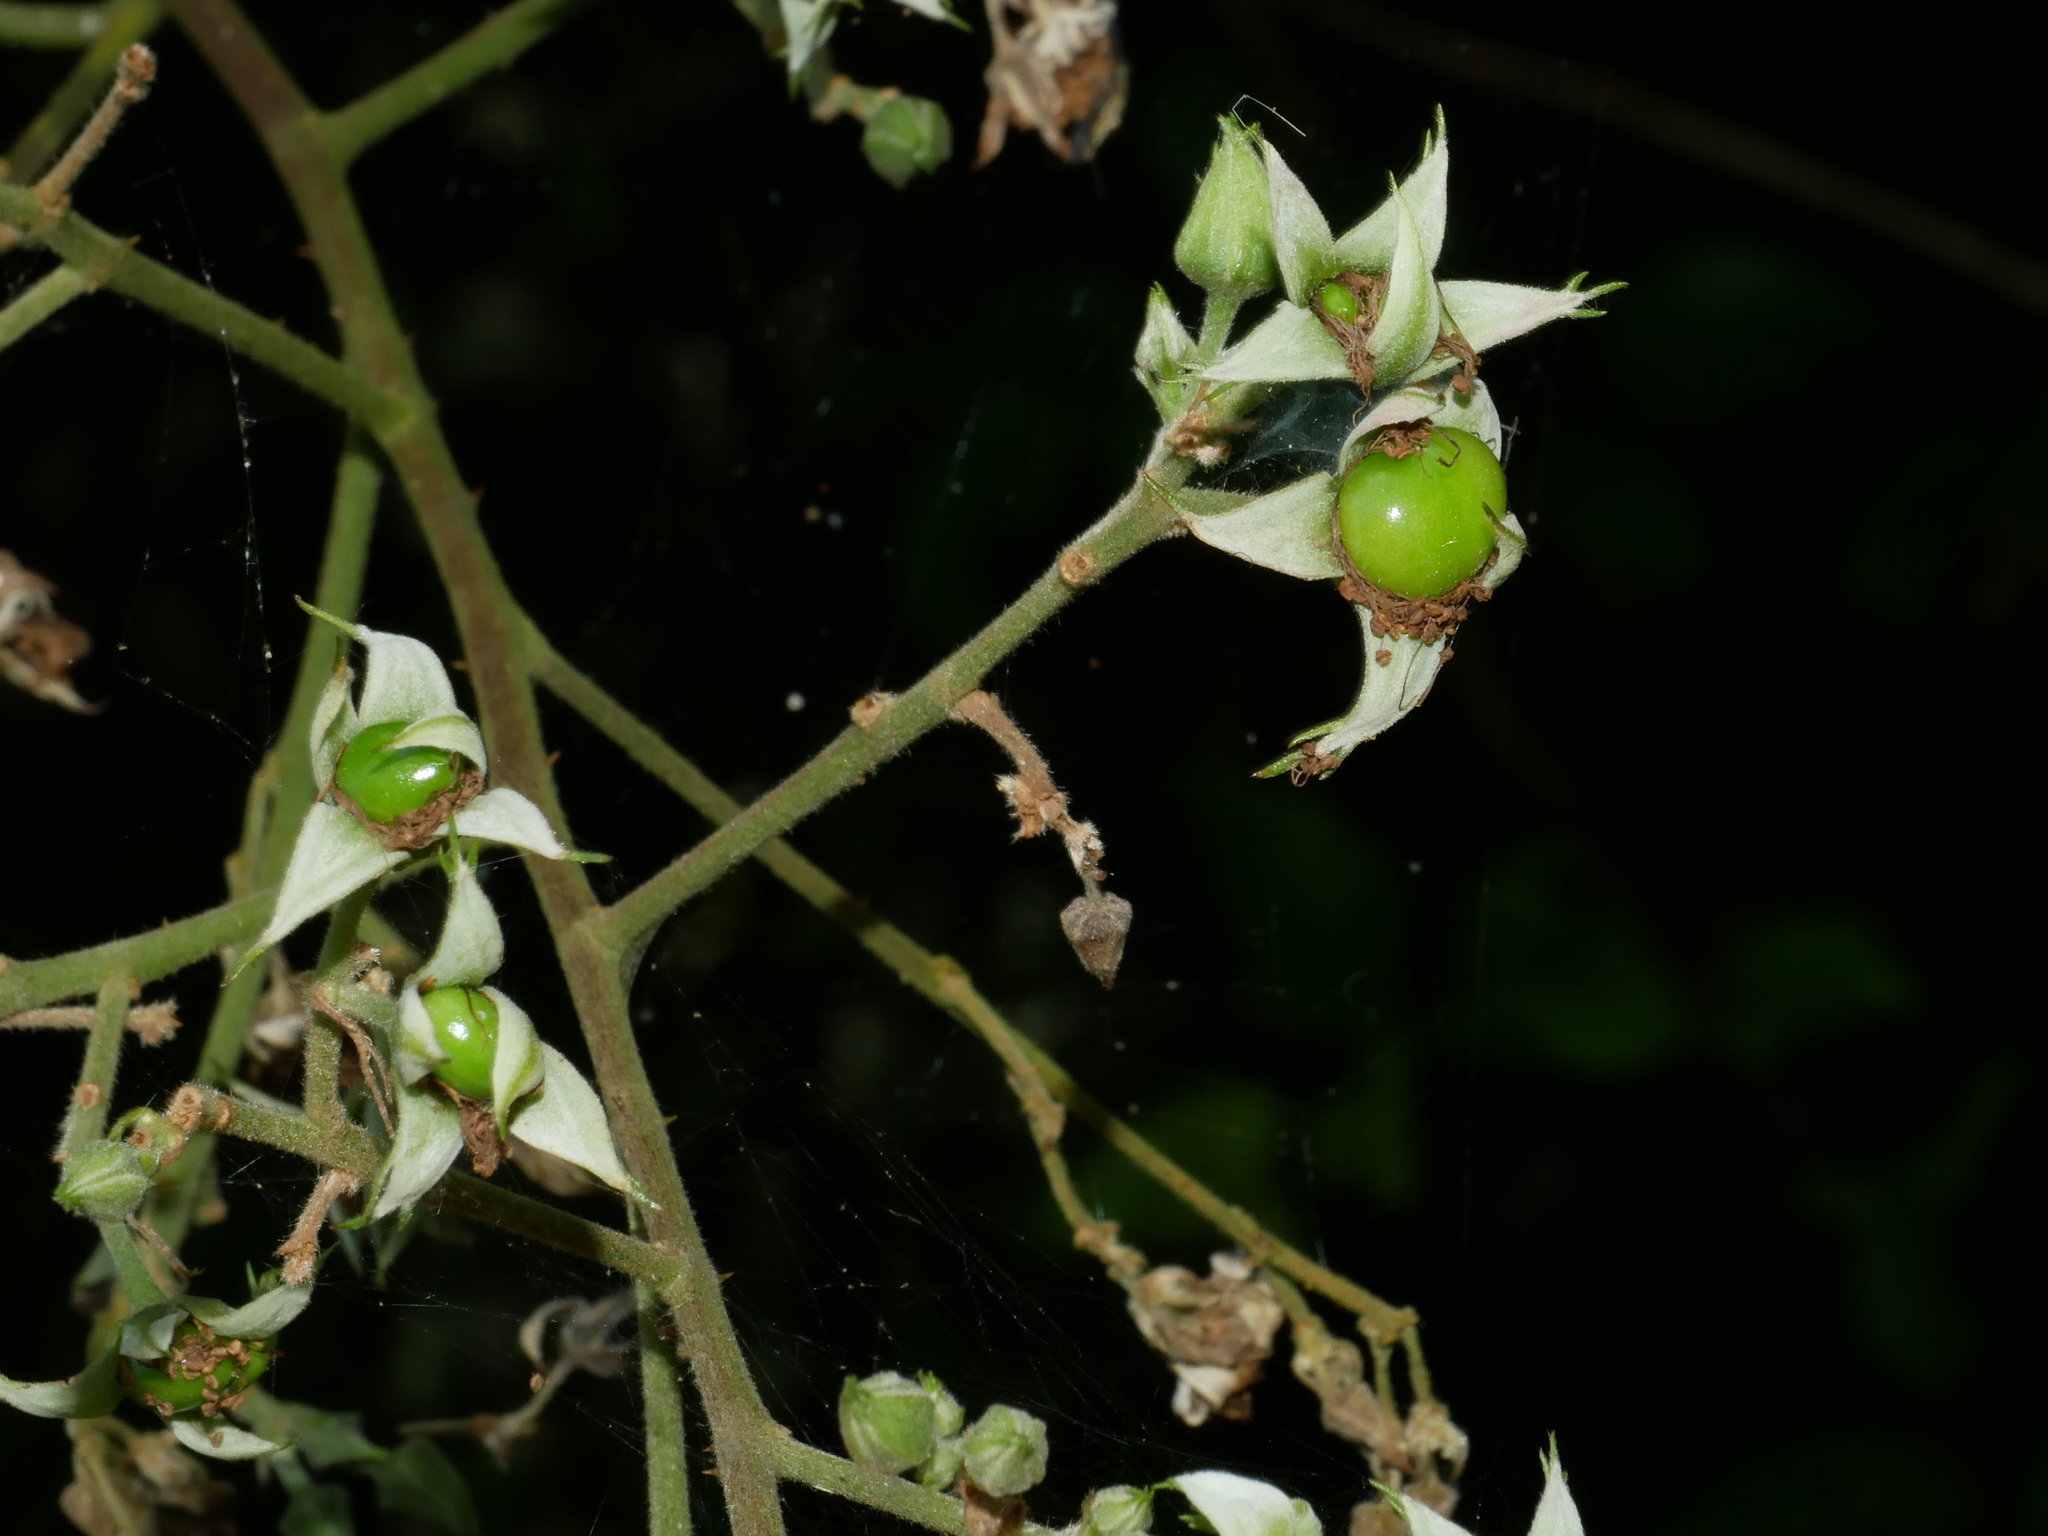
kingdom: Plantae
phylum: Tracheophyta
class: Magnoliopsida
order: Rosales
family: Rosaceae
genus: Rubus
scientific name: Rubus
